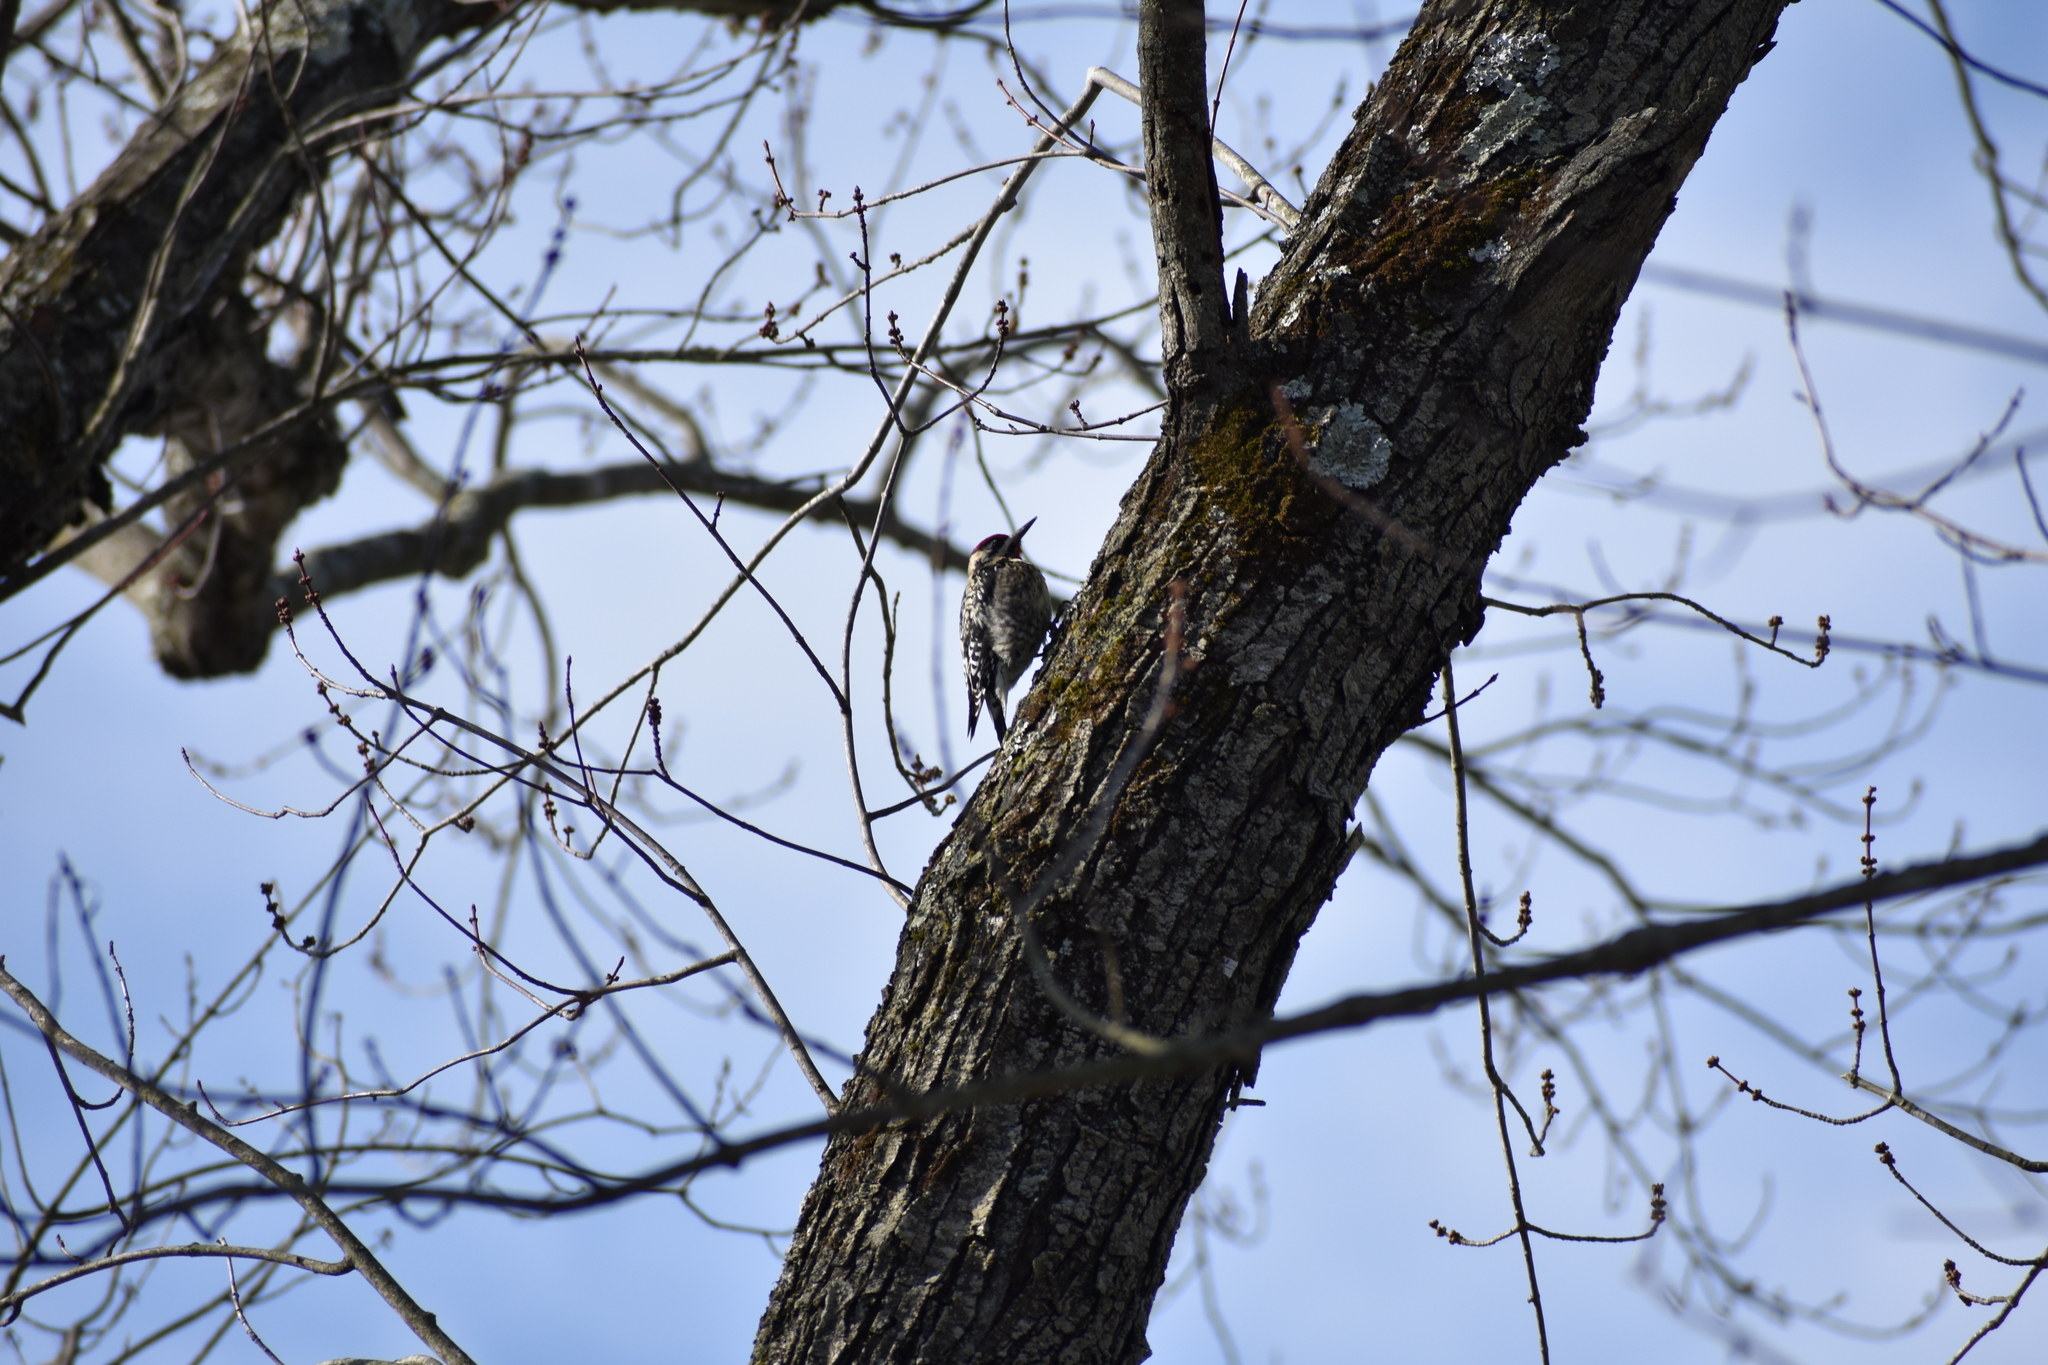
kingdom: Animalia
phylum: Chordata
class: Aves
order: Piciformes
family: Picidae
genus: Sphyrapicus
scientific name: Sphyrapicus varius
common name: Yellow-bellied sapsucker
